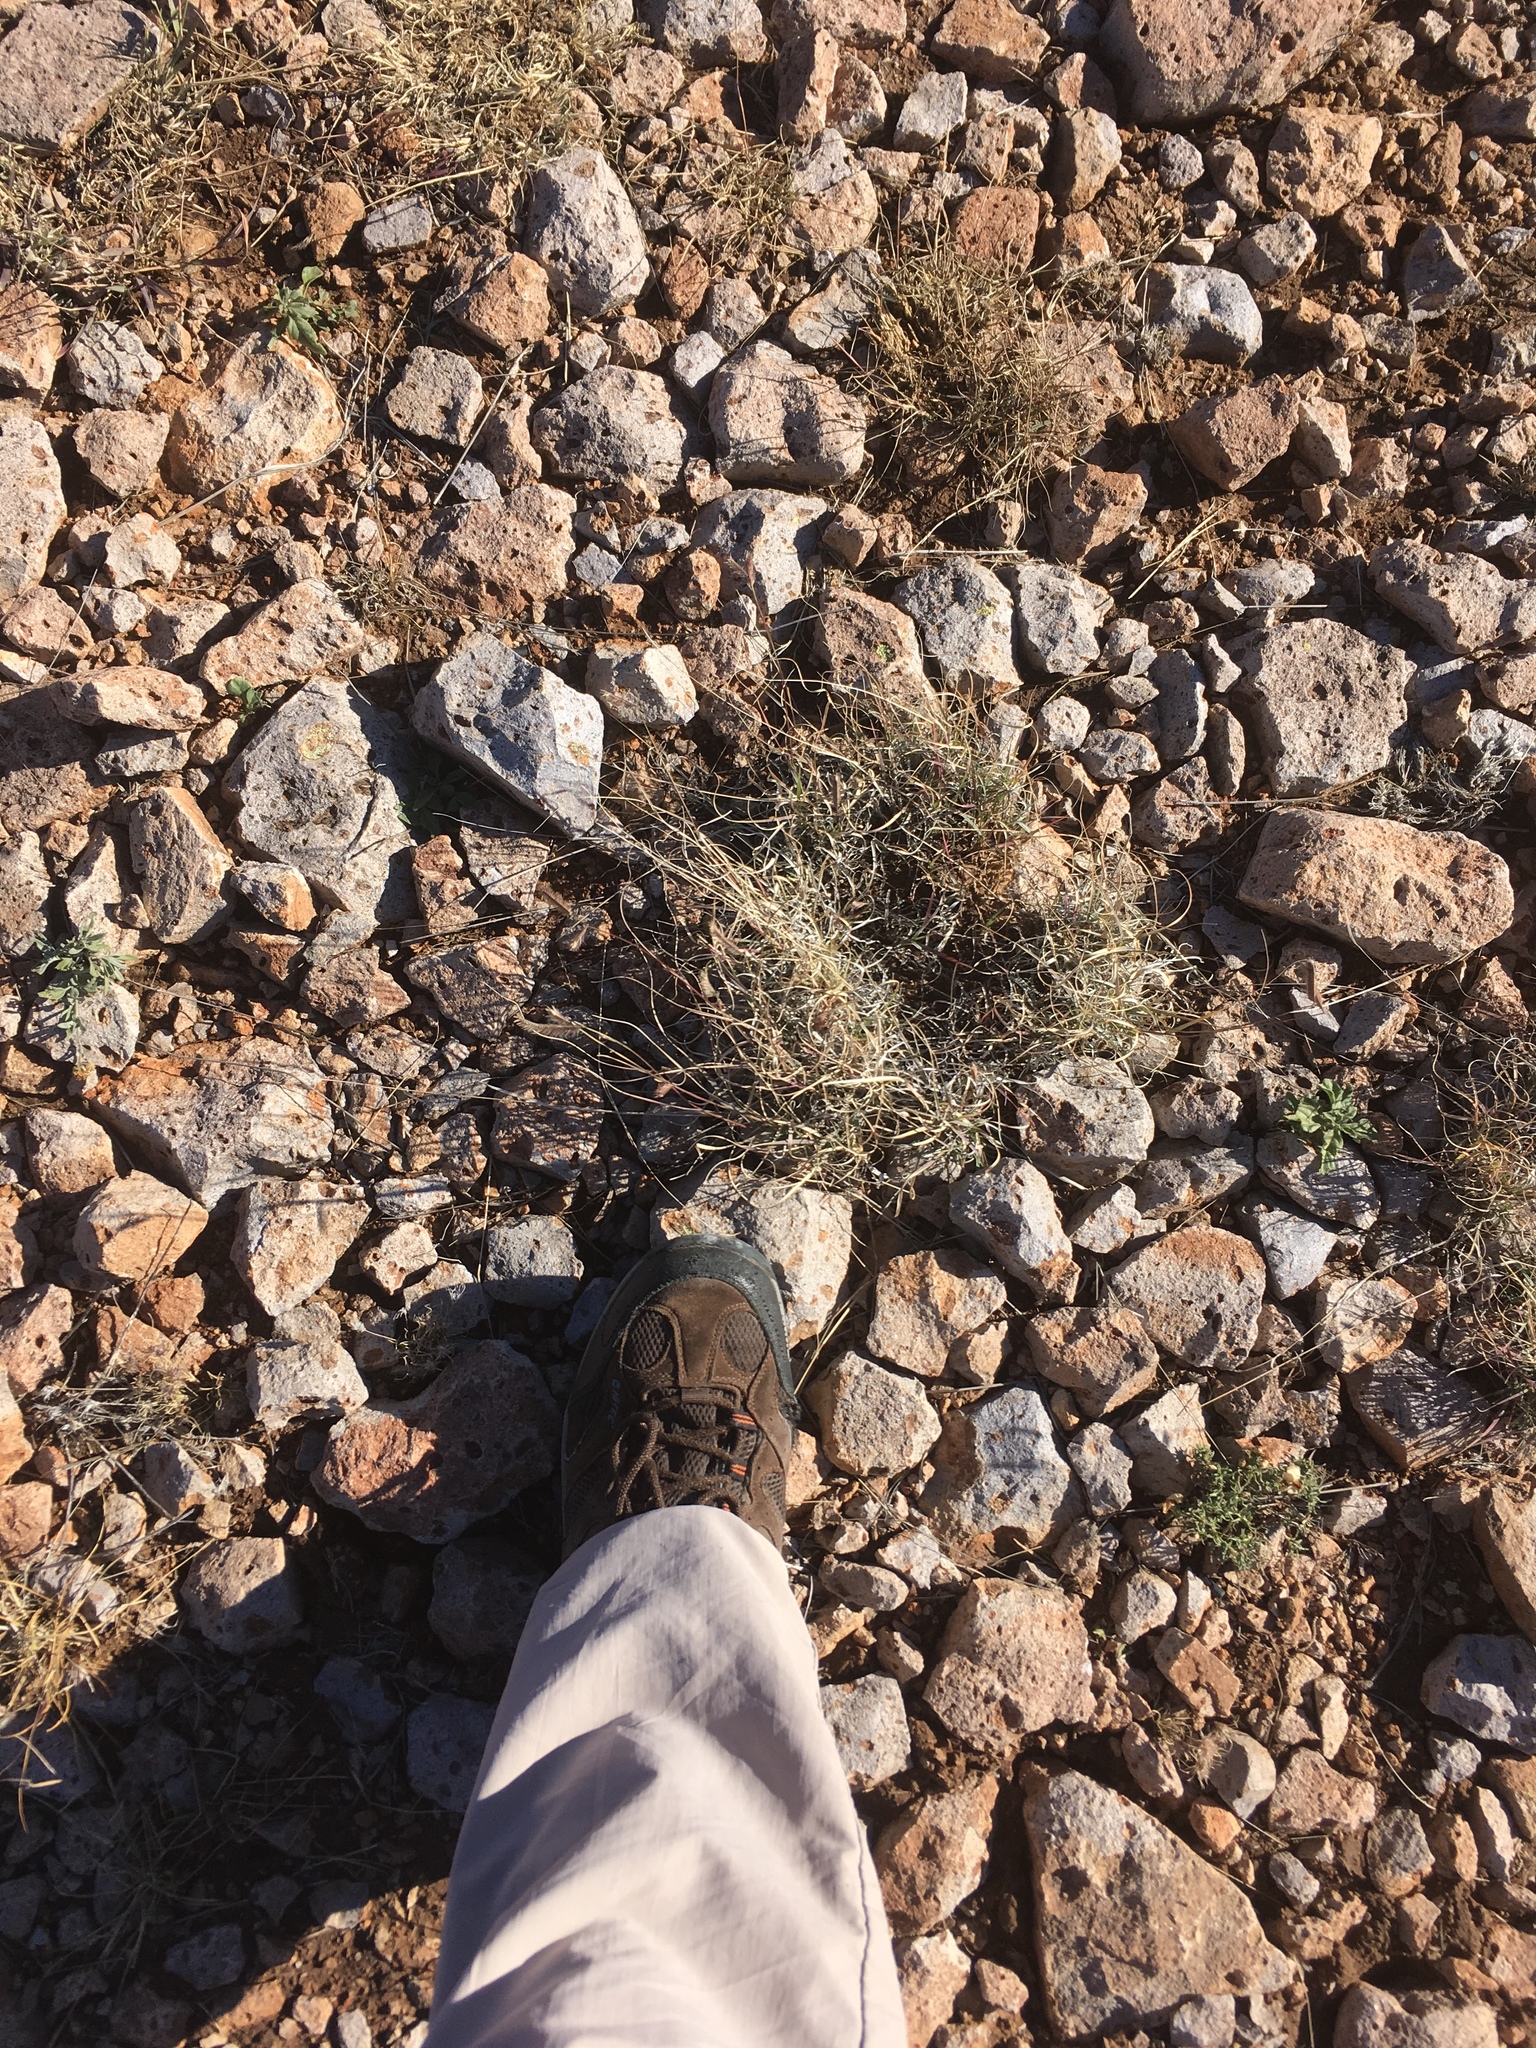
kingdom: Plantae
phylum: Tracheophyta
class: Liliopsida
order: Poales
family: Poaceae
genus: Bouteloua
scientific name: Bouteloua gracilis
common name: Blue grama
